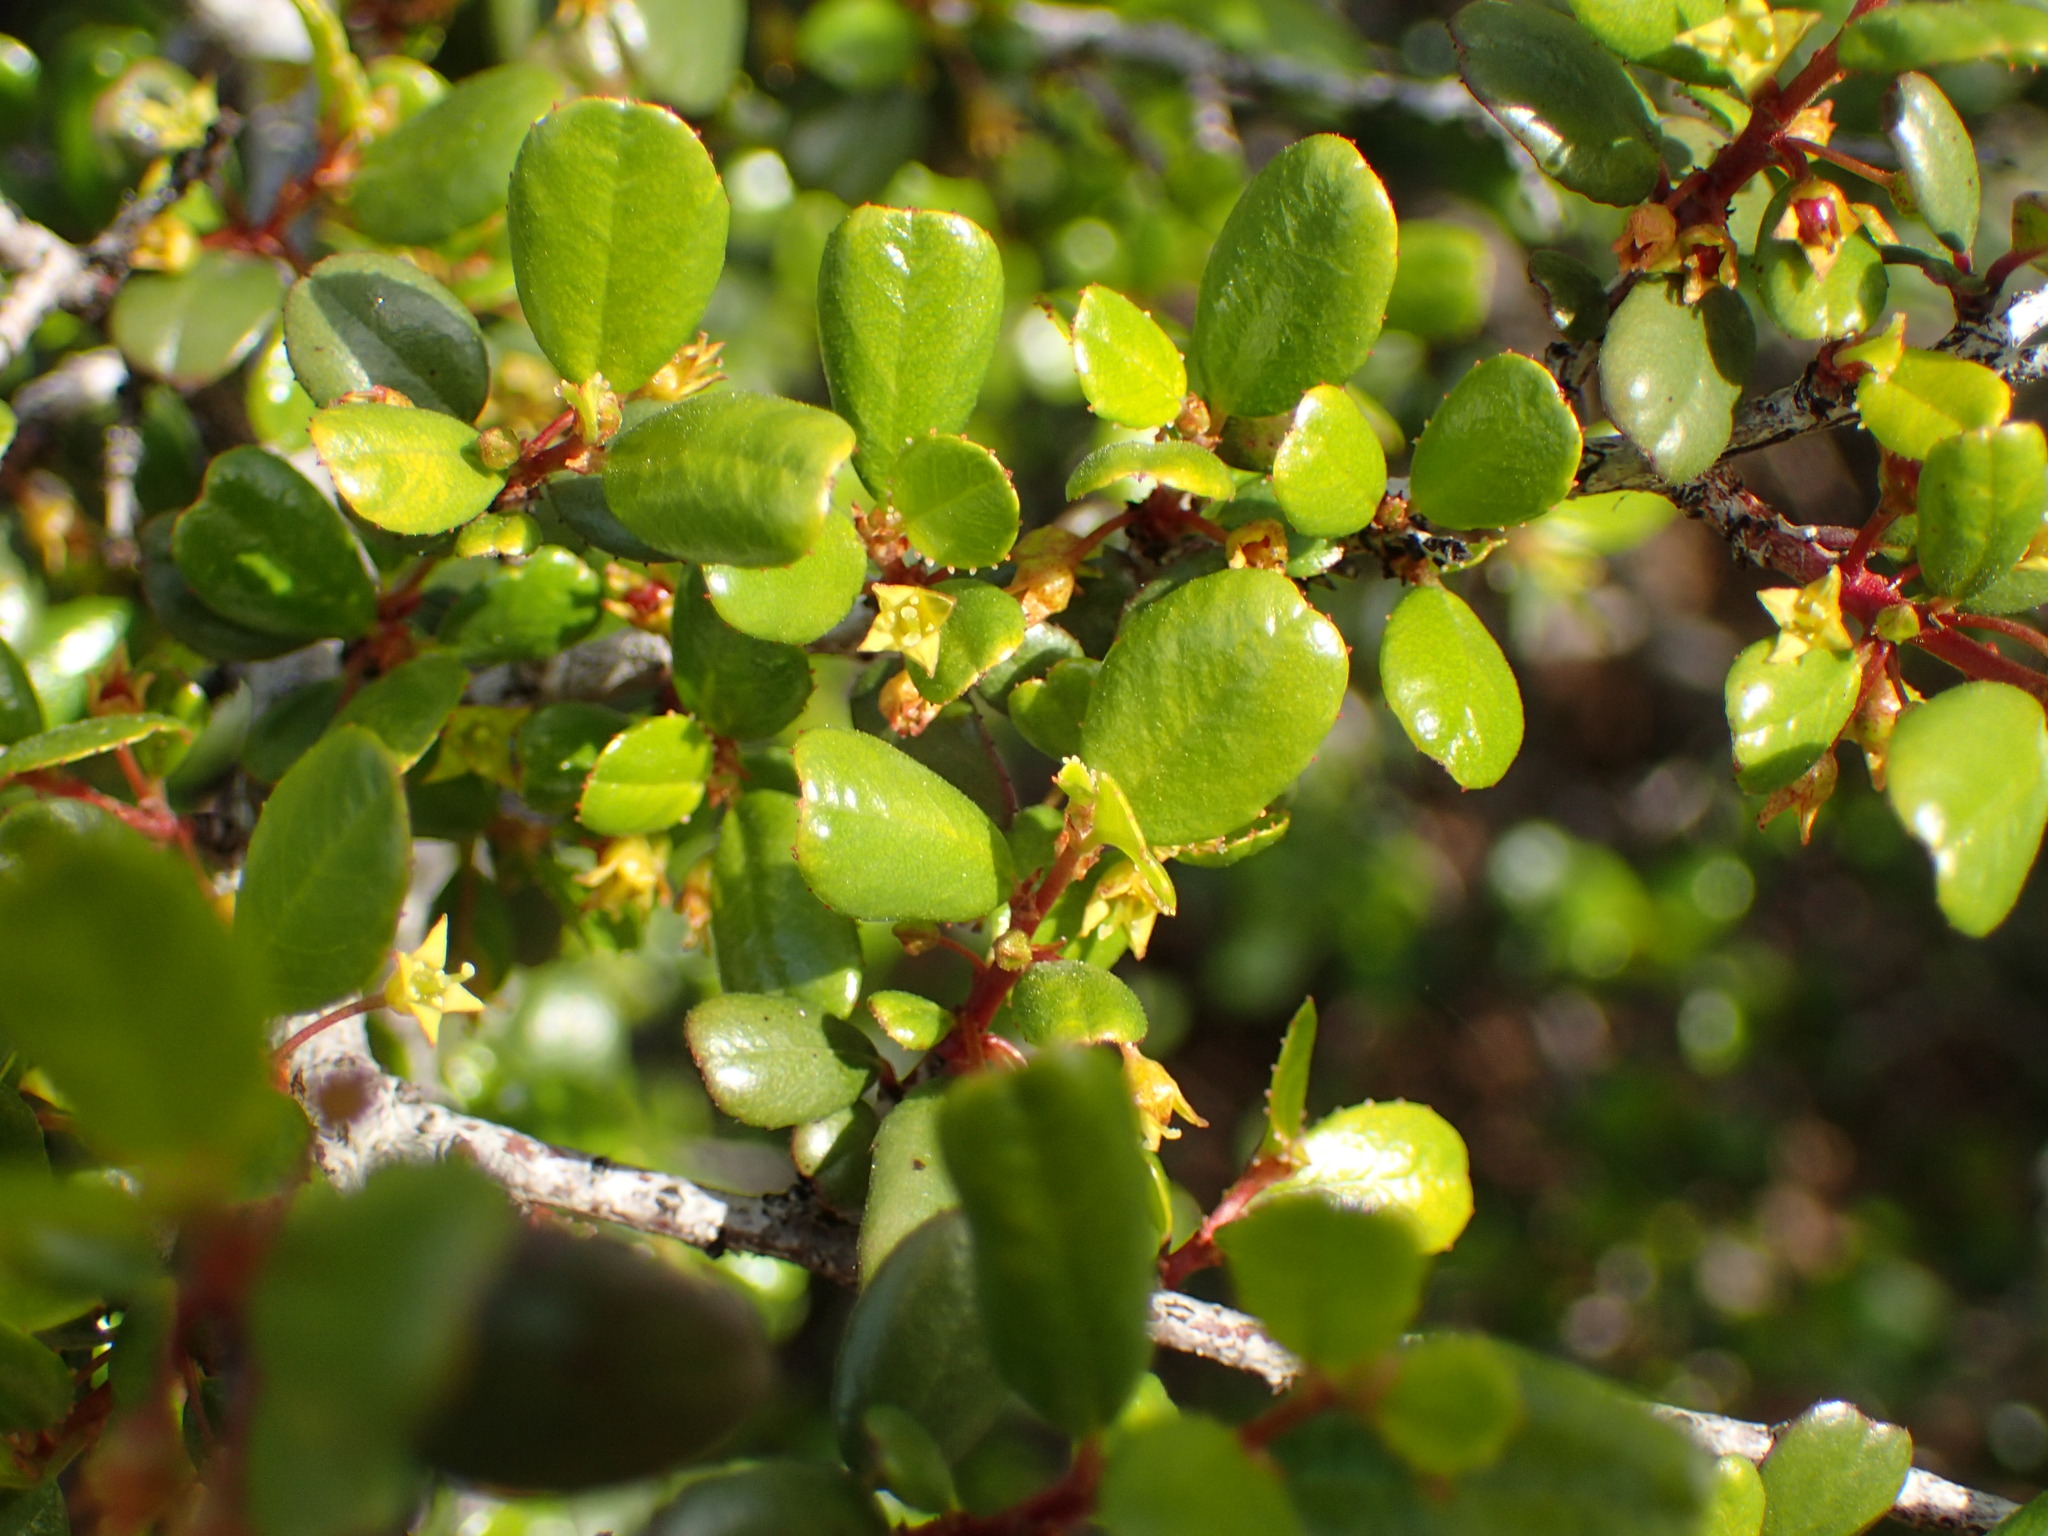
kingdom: Plantae
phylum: Tracheophyta
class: Magnoliopsida
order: Rosales
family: Rhamnaceae
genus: Endotropis
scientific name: Endotropis crocea
